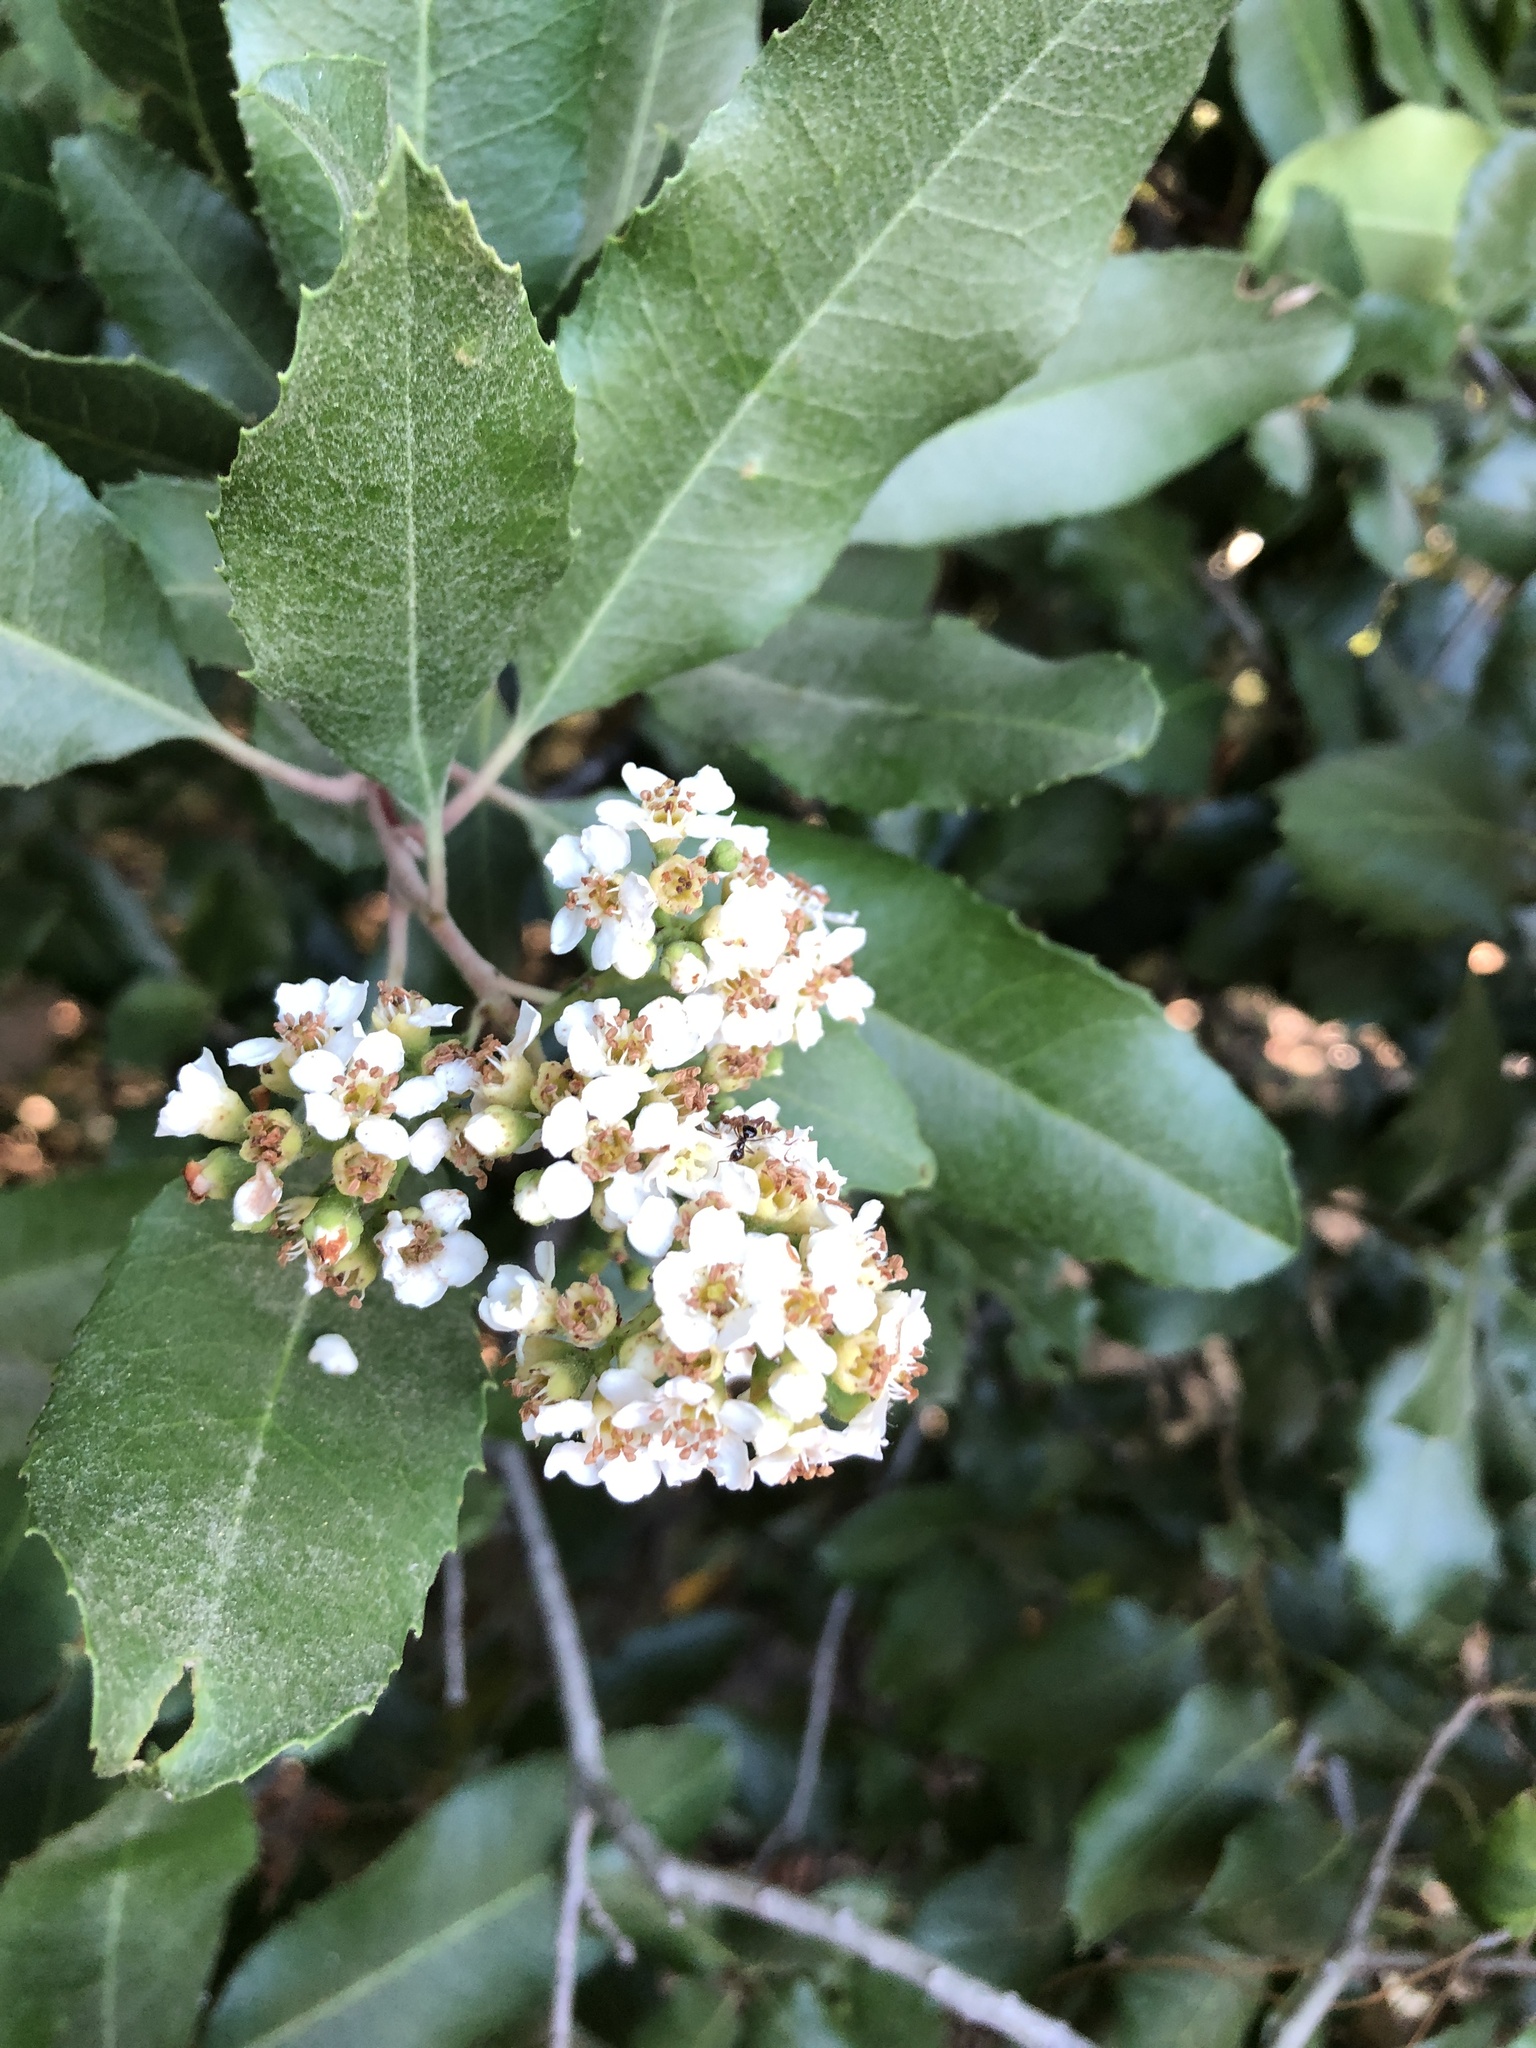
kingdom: Plantae
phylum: Tracheophyta
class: Magnoliopsida
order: Rosales
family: Rosaceae
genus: Heteromeles
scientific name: Heteromeles arbutifolia
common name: California-holly
